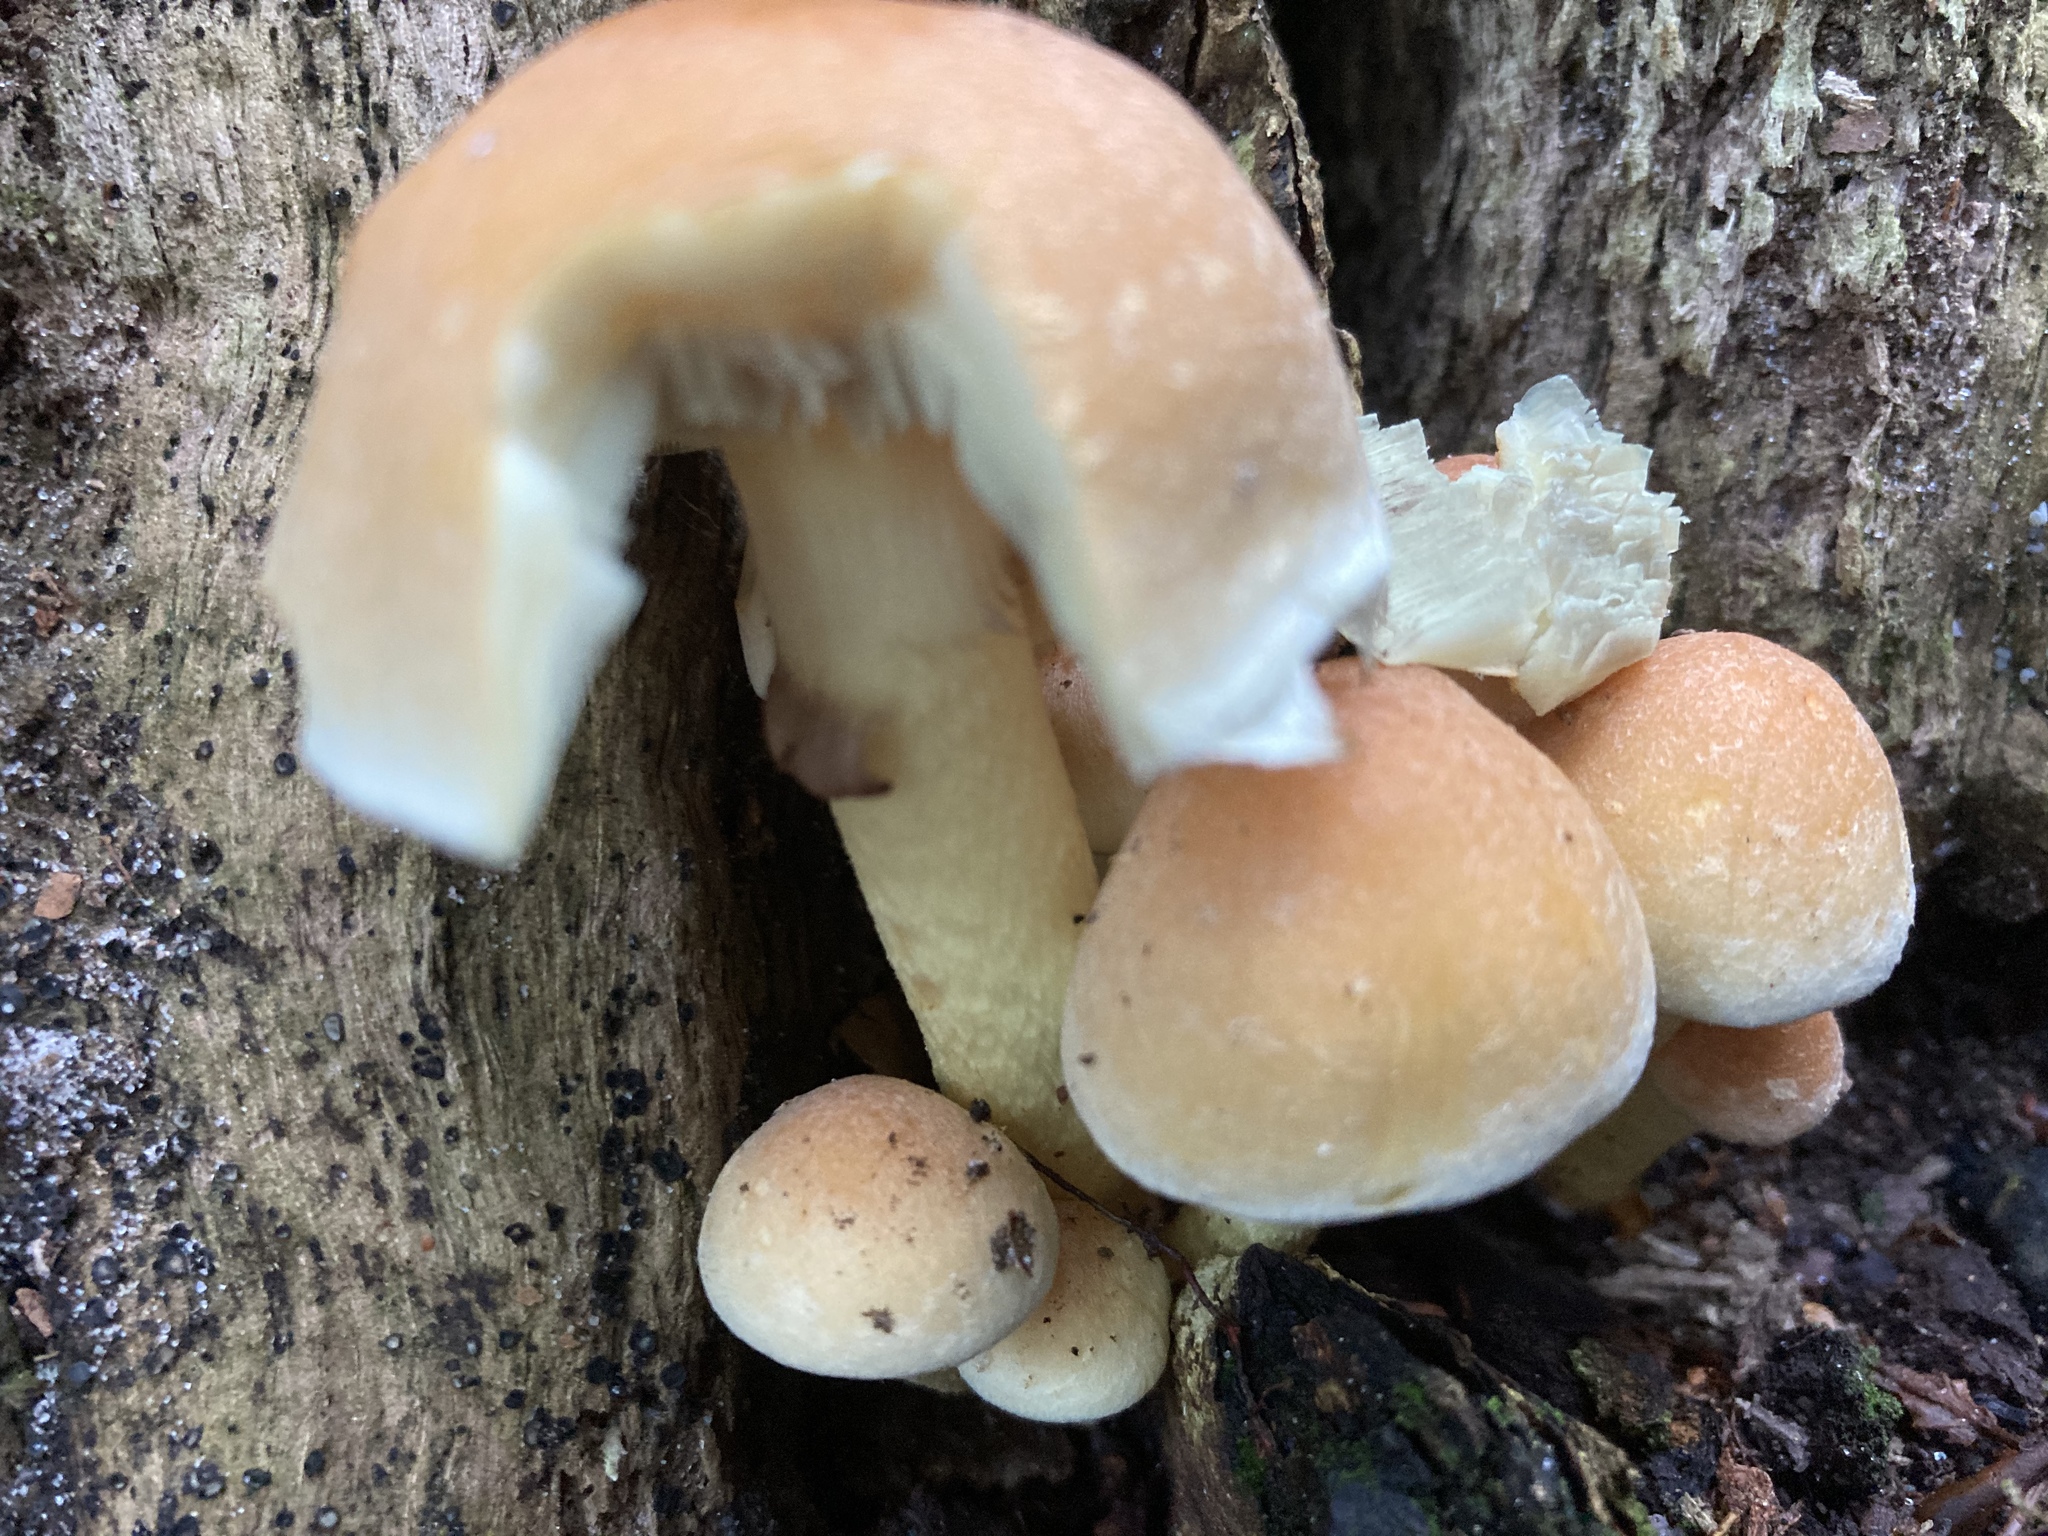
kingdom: Fungi
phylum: Basidiomycota
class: Agaricomycetes
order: Agaricales
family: Strophariaceae
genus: Hypholoma
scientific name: Hypholoma fasciculare
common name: Sulphur tuft
